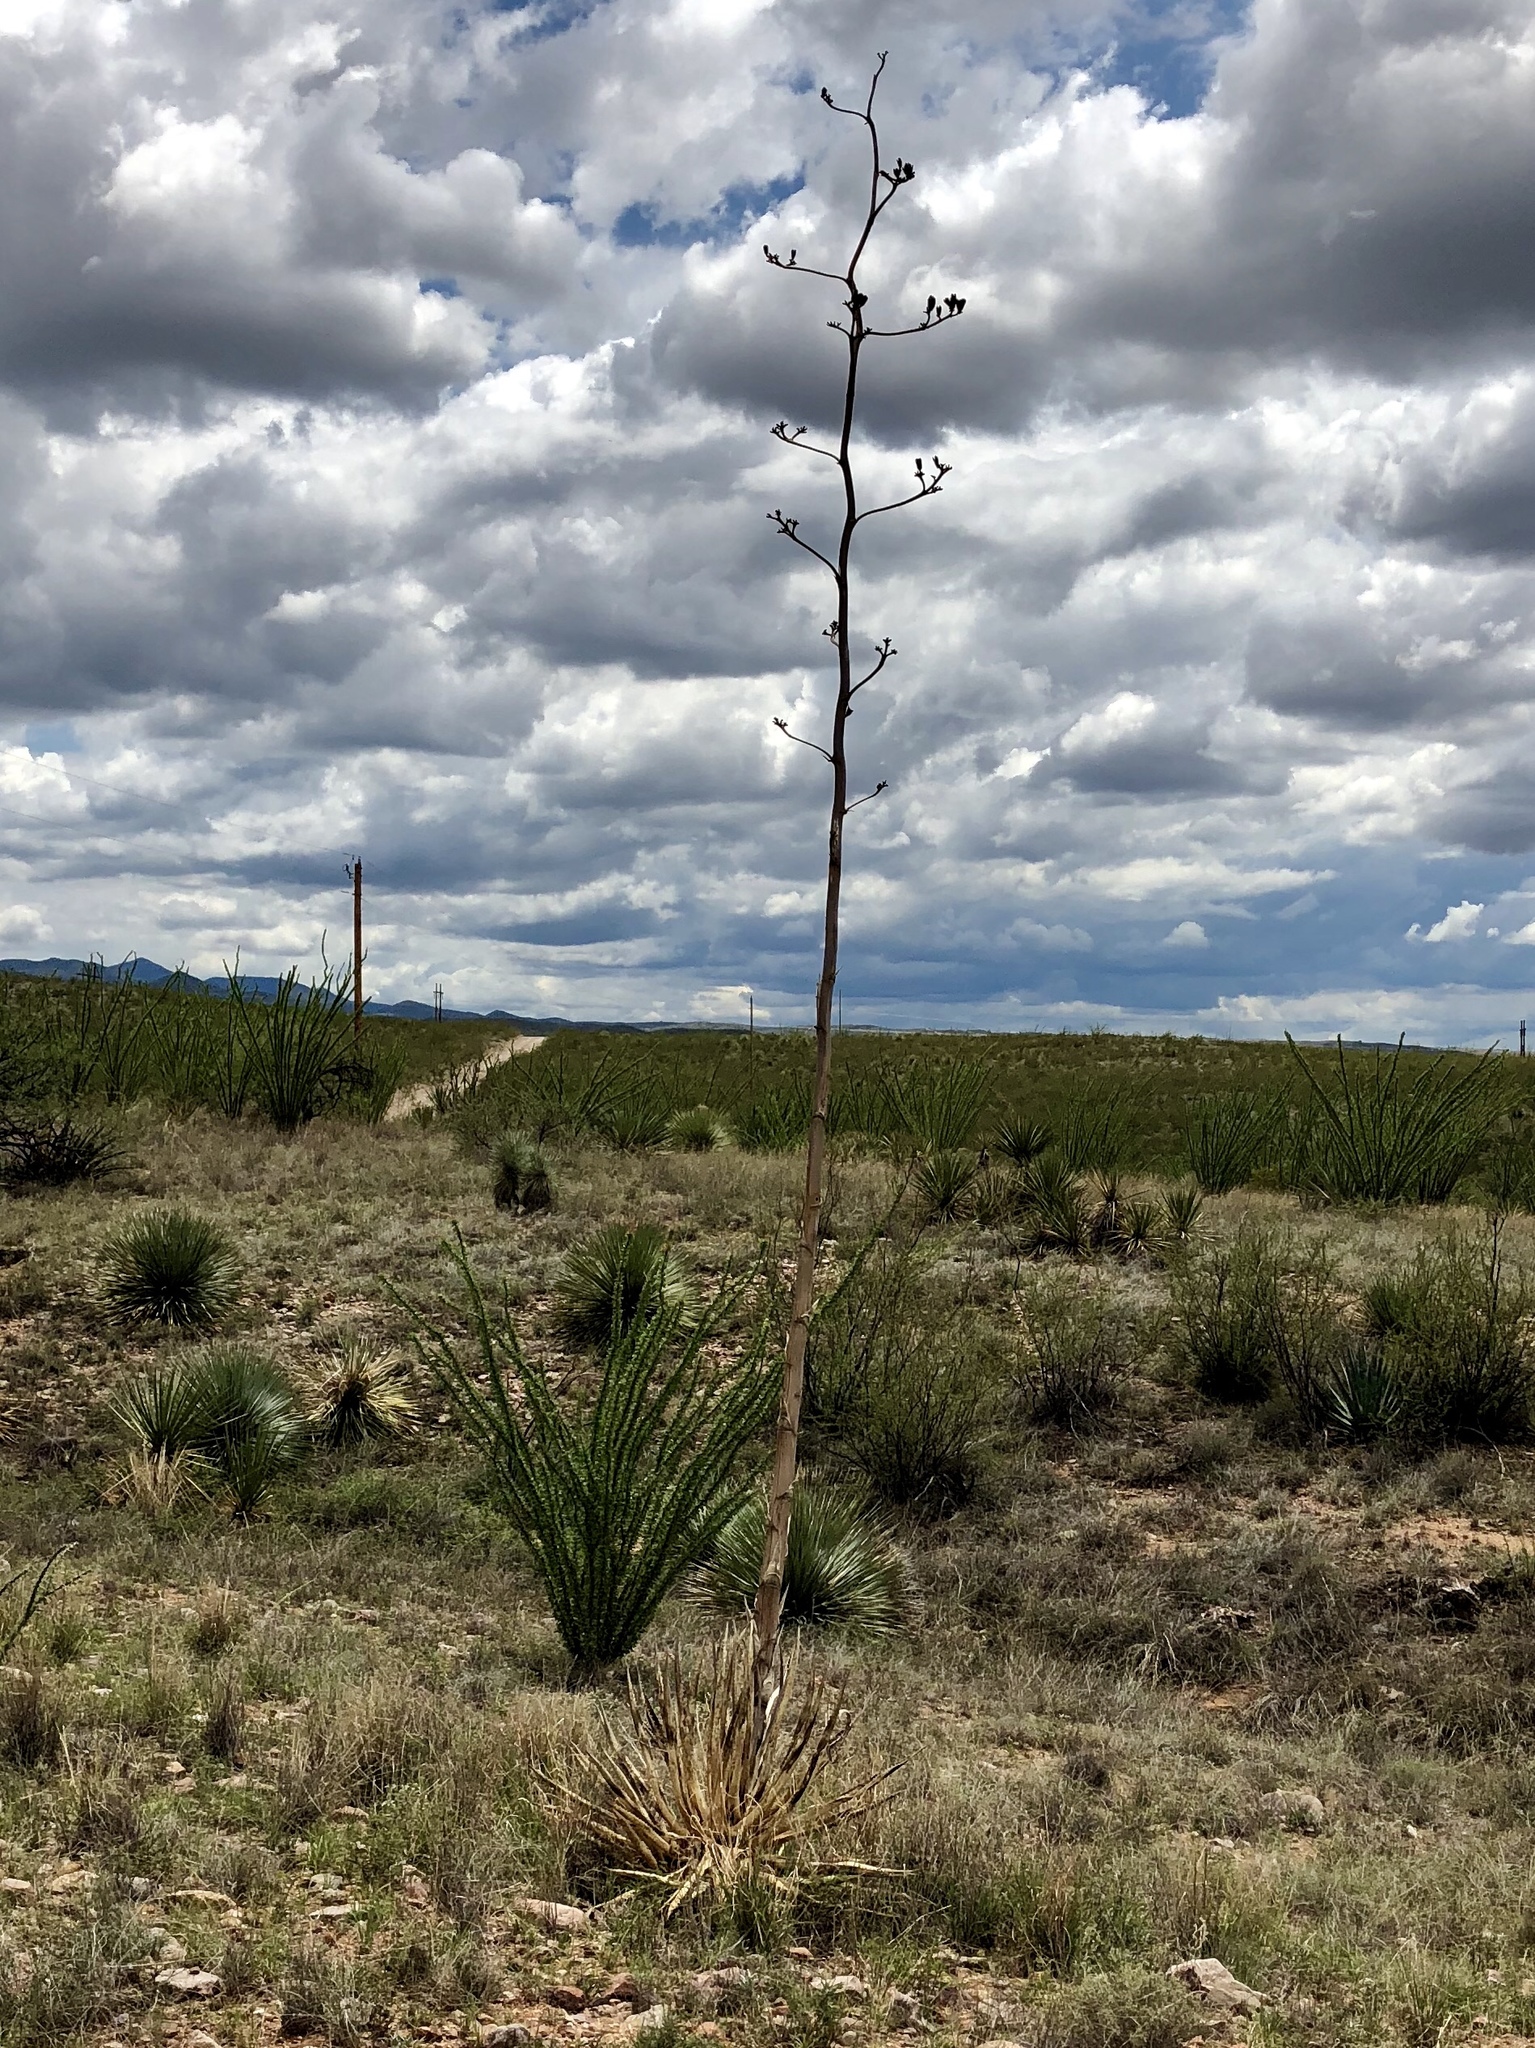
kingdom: Plantae
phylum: Tracheophyta
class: Liliopsida
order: Asparagales
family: Asparagaceae
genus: Agave
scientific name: Agave palmeri
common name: Palmer agave
